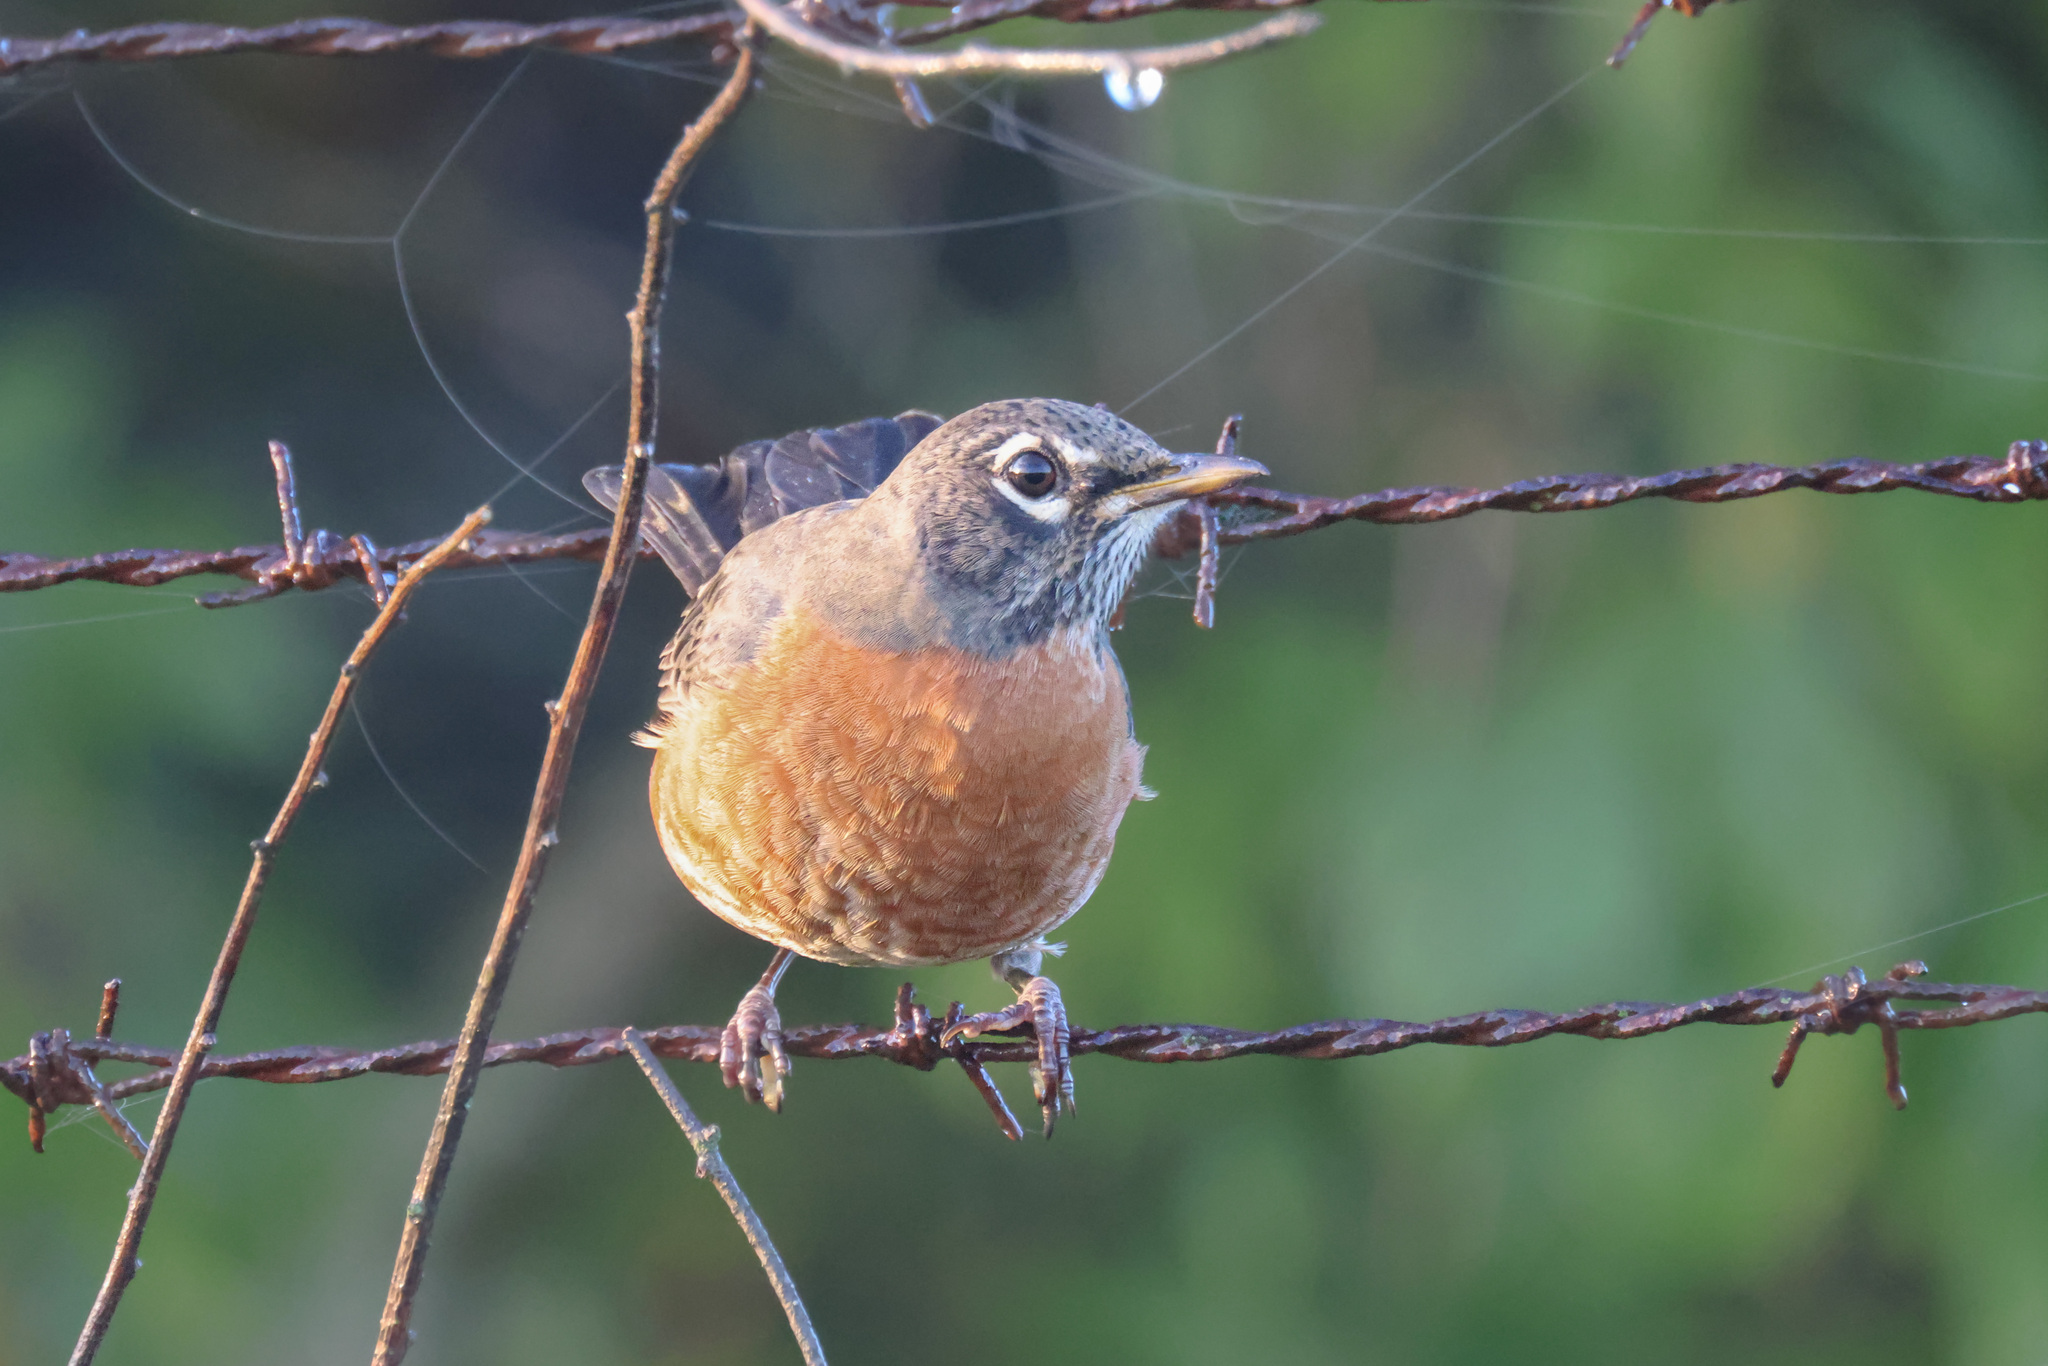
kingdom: Animalia
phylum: Chordata
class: Aves
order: Passeriformes
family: Turdidae
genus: Turdus
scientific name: Turdus migratorius
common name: American robin
